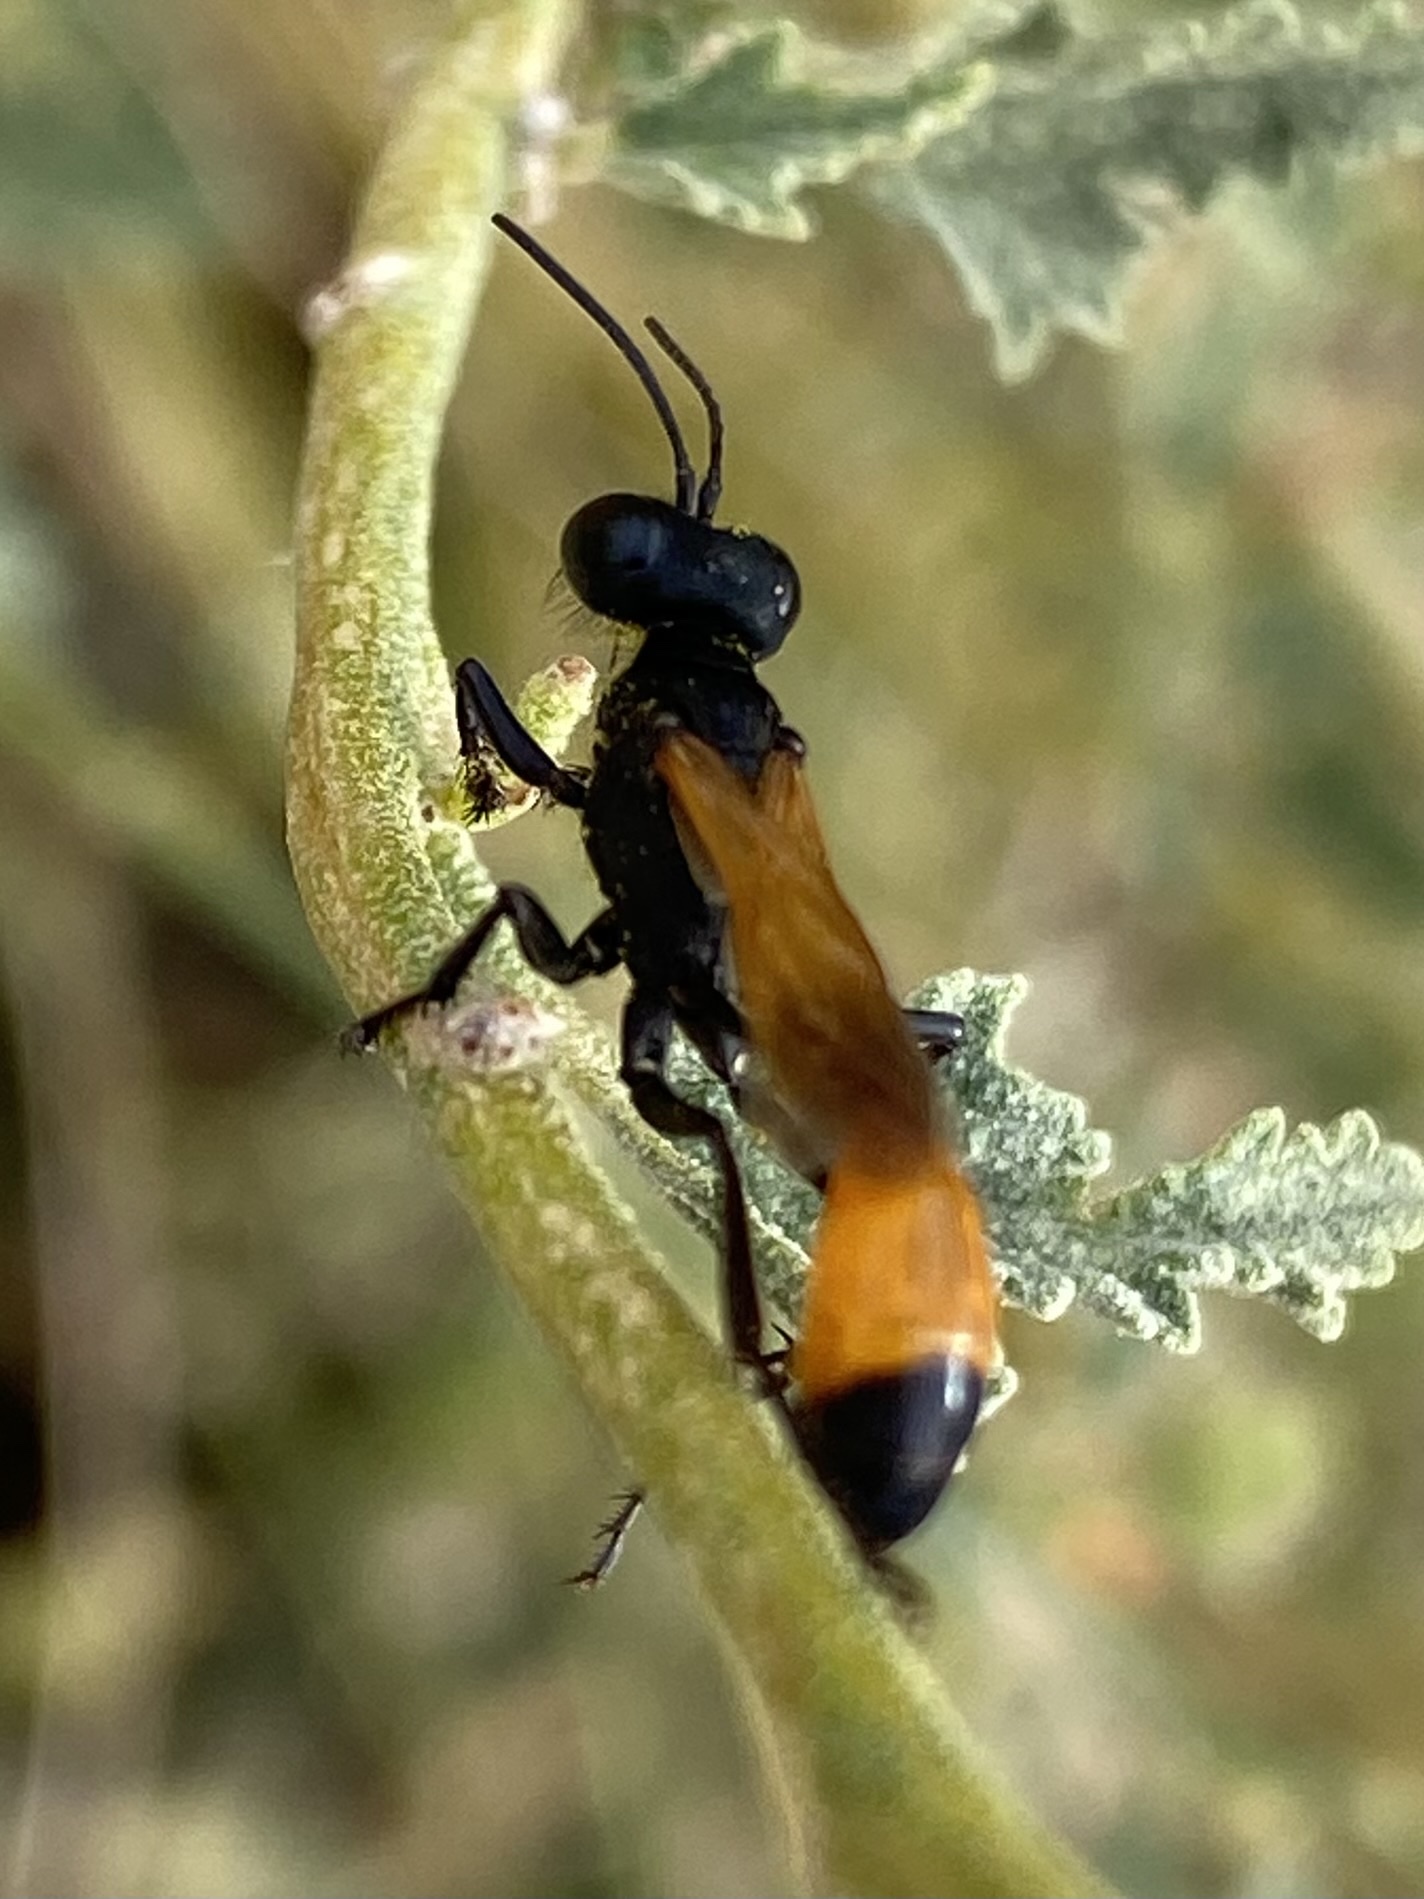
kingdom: Animalia
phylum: Arthropoda
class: Insecta
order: Hymenoptera
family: Sphecidae
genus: Ammophila
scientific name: Ammophila
